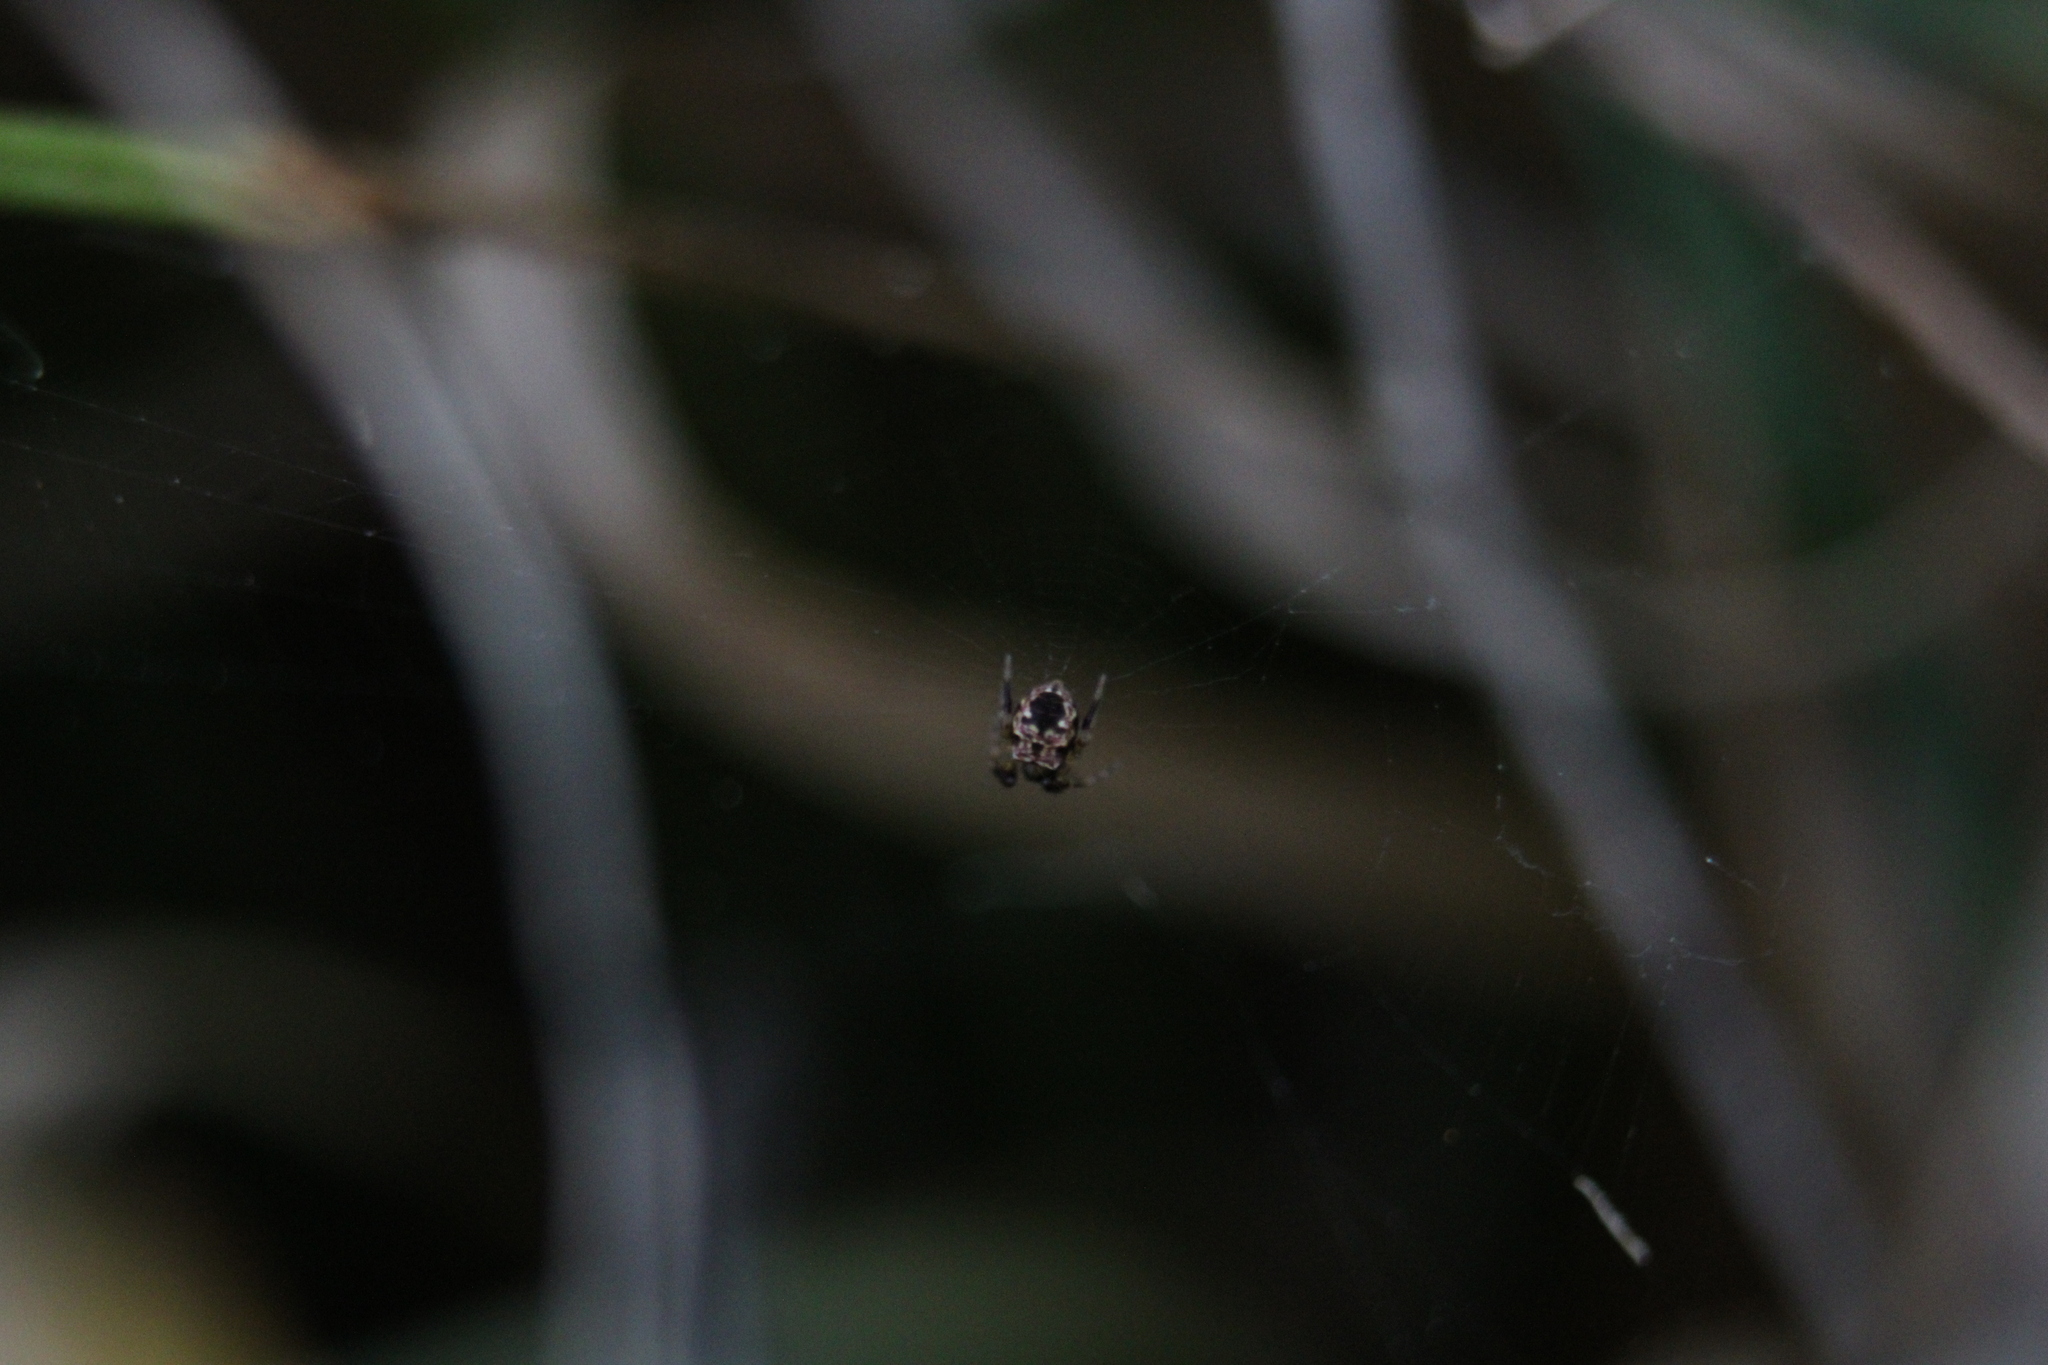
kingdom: Animalia
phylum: Arthropoda
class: Arachnida
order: Araneae
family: Araneidae
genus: Gea
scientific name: Gea heptagon
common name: Orb weavers
